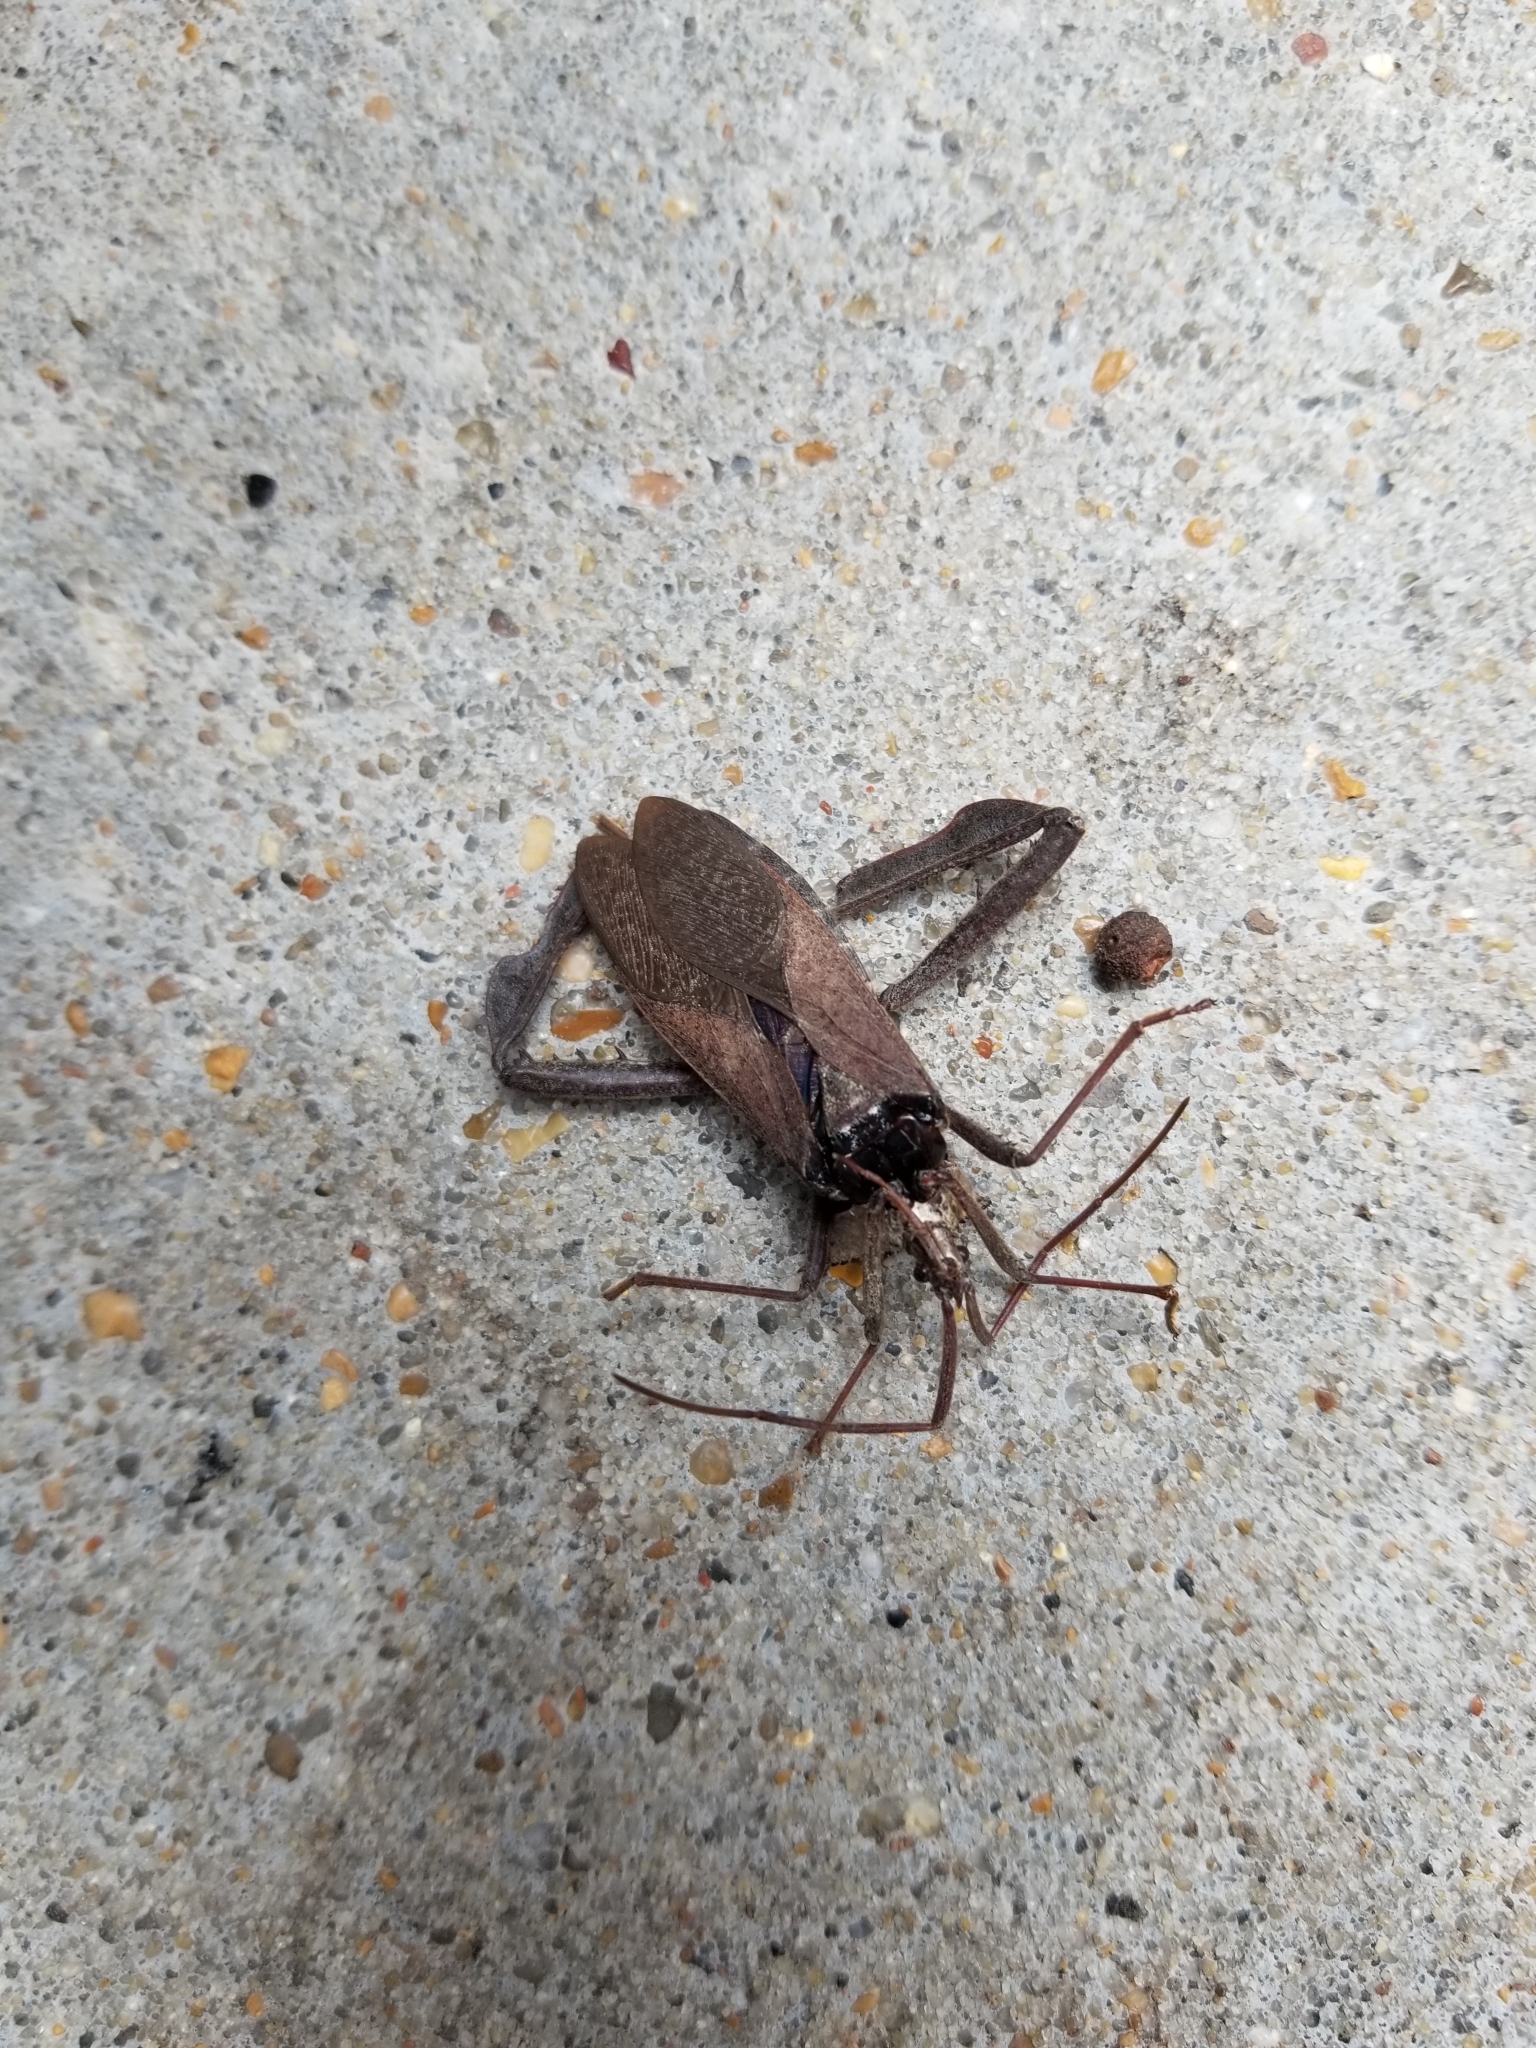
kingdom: Animalia
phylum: Arthropoda
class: Insecta
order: Hemiptera
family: Coreidae
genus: Acanthocephala
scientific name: Acanthocephala declivis
